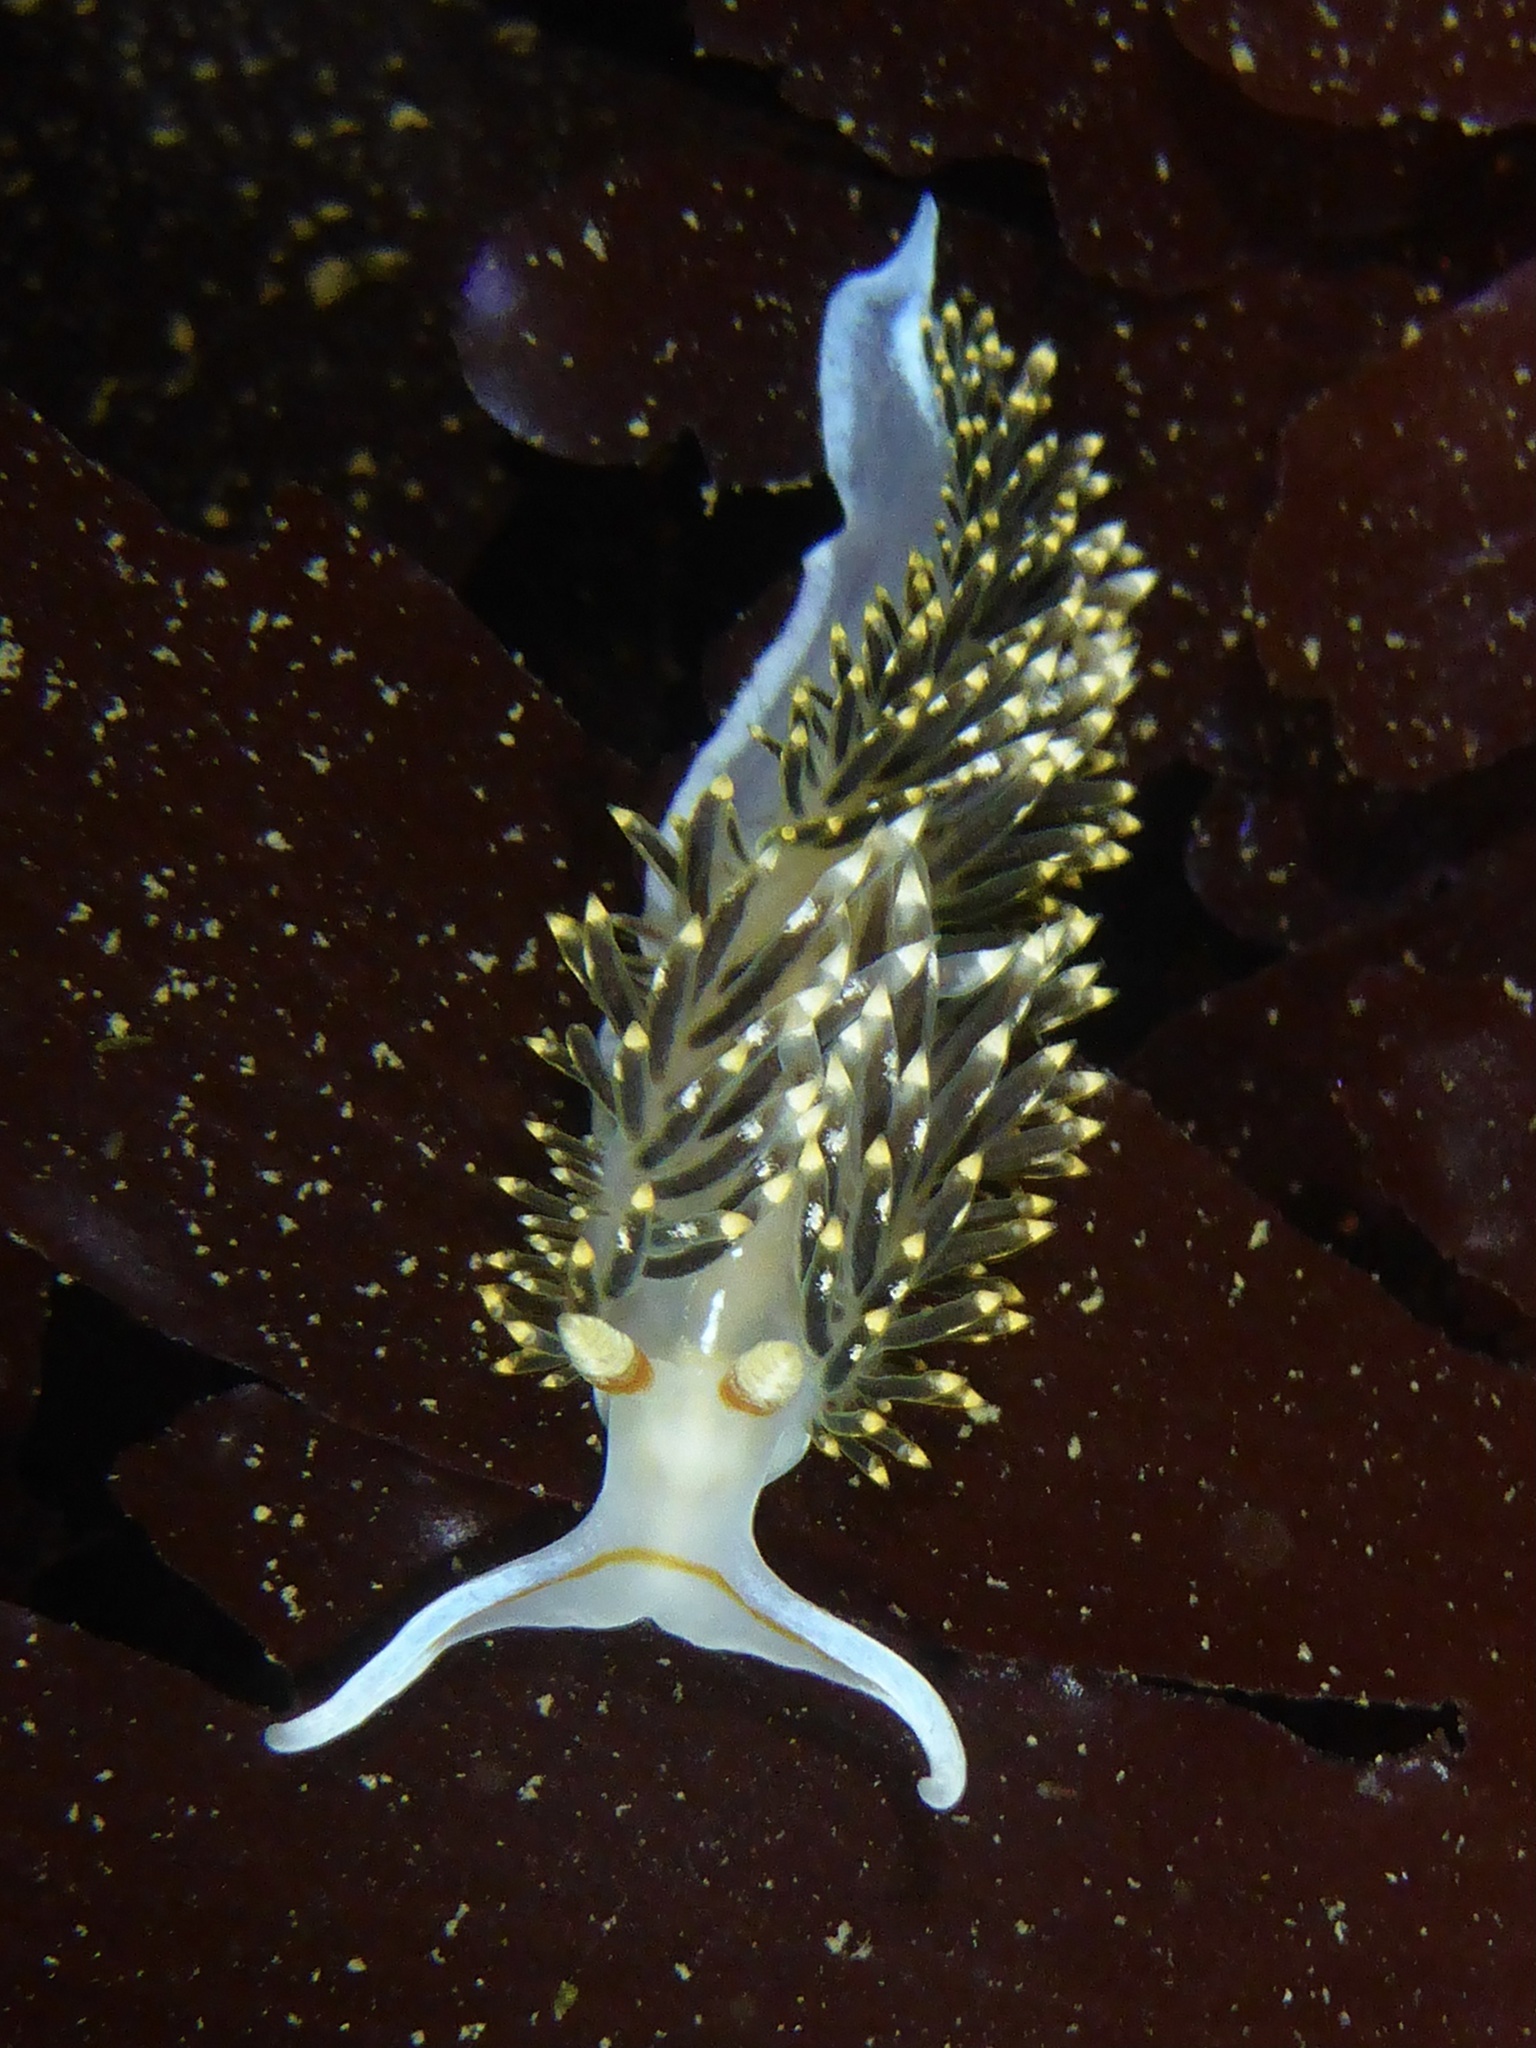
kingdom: Animalia
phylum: Mollusca
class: Gastropoda
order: Nudibranchia
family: Facelinidae
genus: Phidiana
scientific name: Phidiana hiltoni
